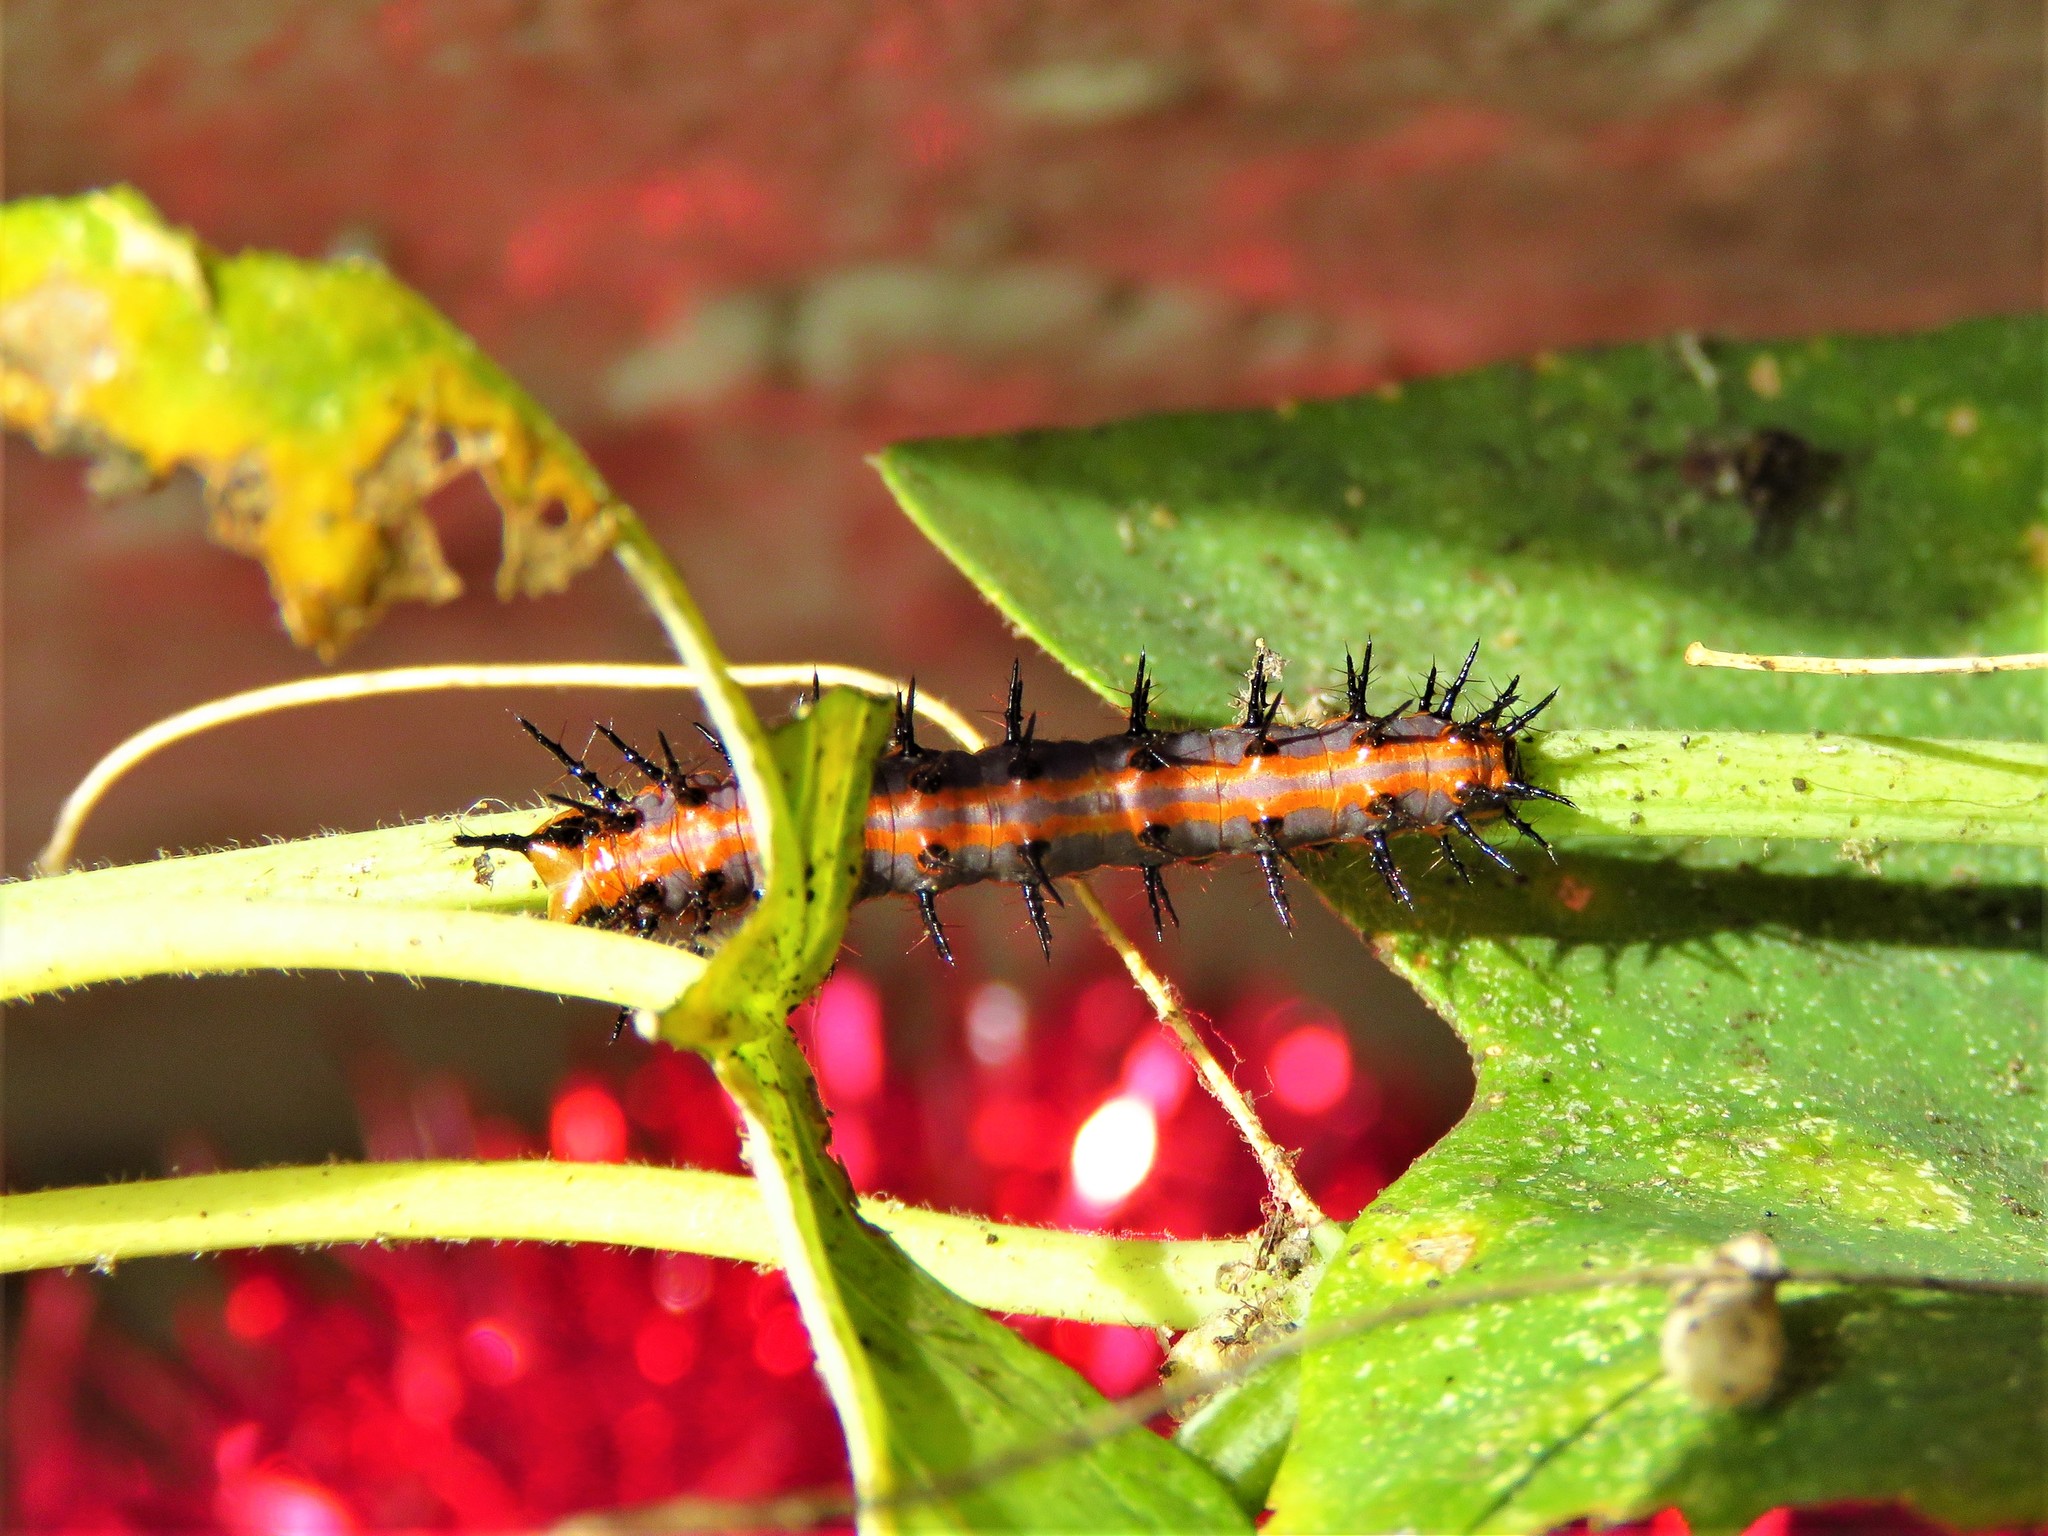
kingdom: Animalia
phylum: Arthropoda
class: Insecta
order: Lepidoptera
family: Nymphalidae
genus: Dione
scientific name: Dione vanillae
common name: Gulf fritillary
